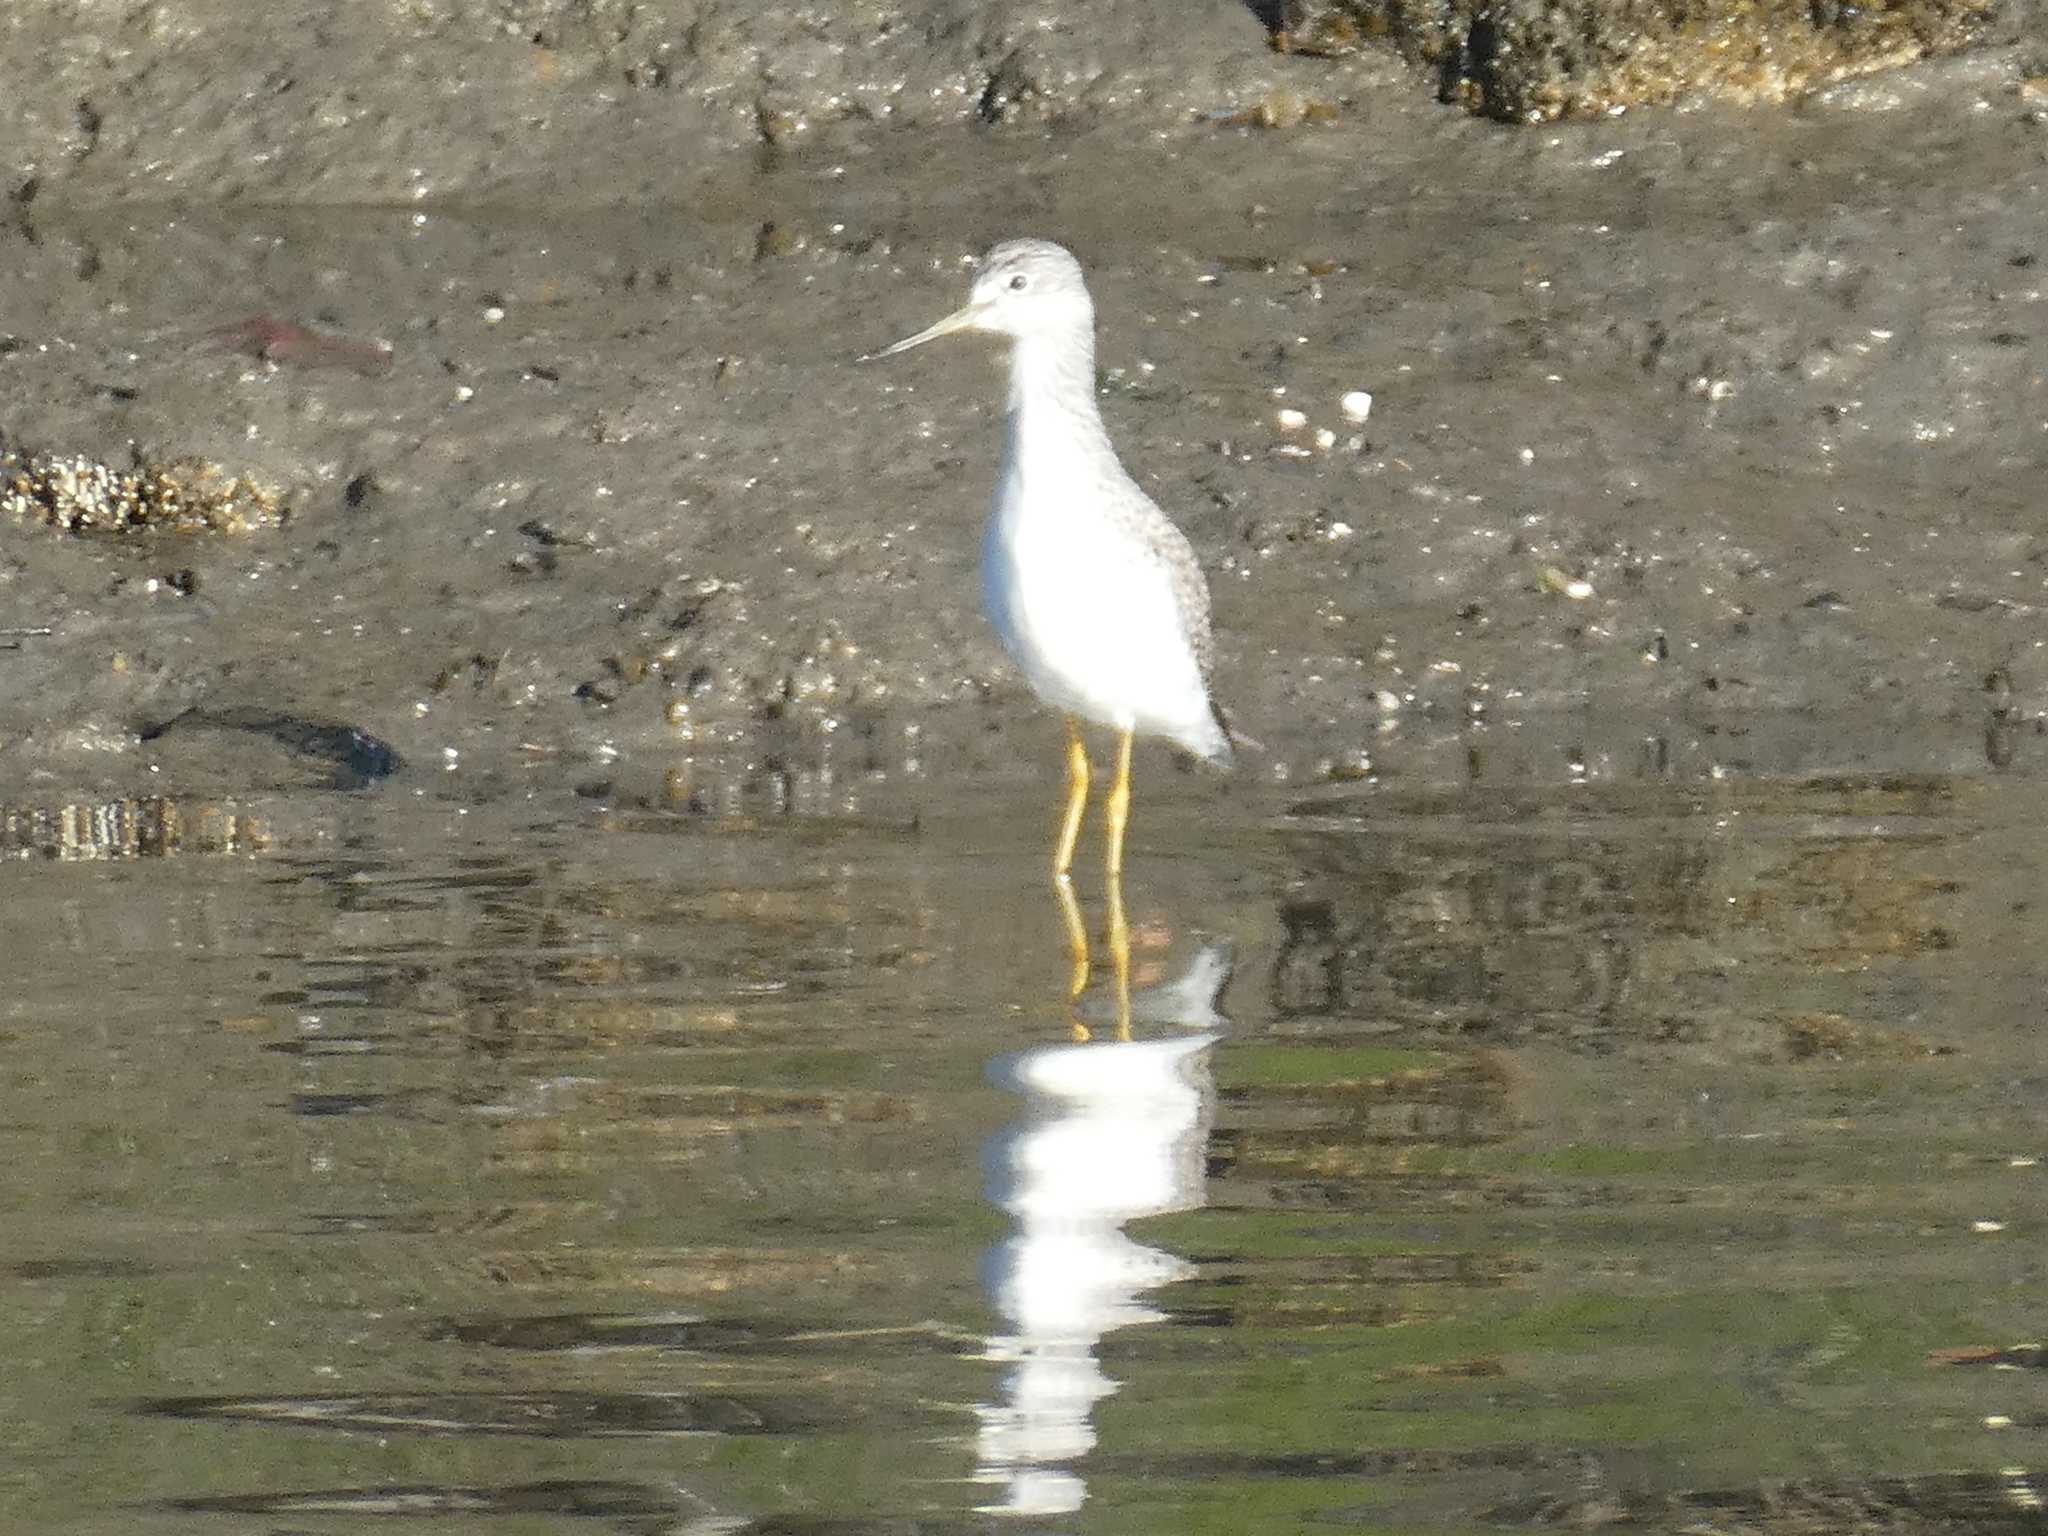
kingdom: Animalia
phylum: Chordata
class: Aves
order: Charadriiformes
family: Scolopacidae
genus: Tringa
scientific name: Tringa melanoleuca
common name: Greater yellowlegs
